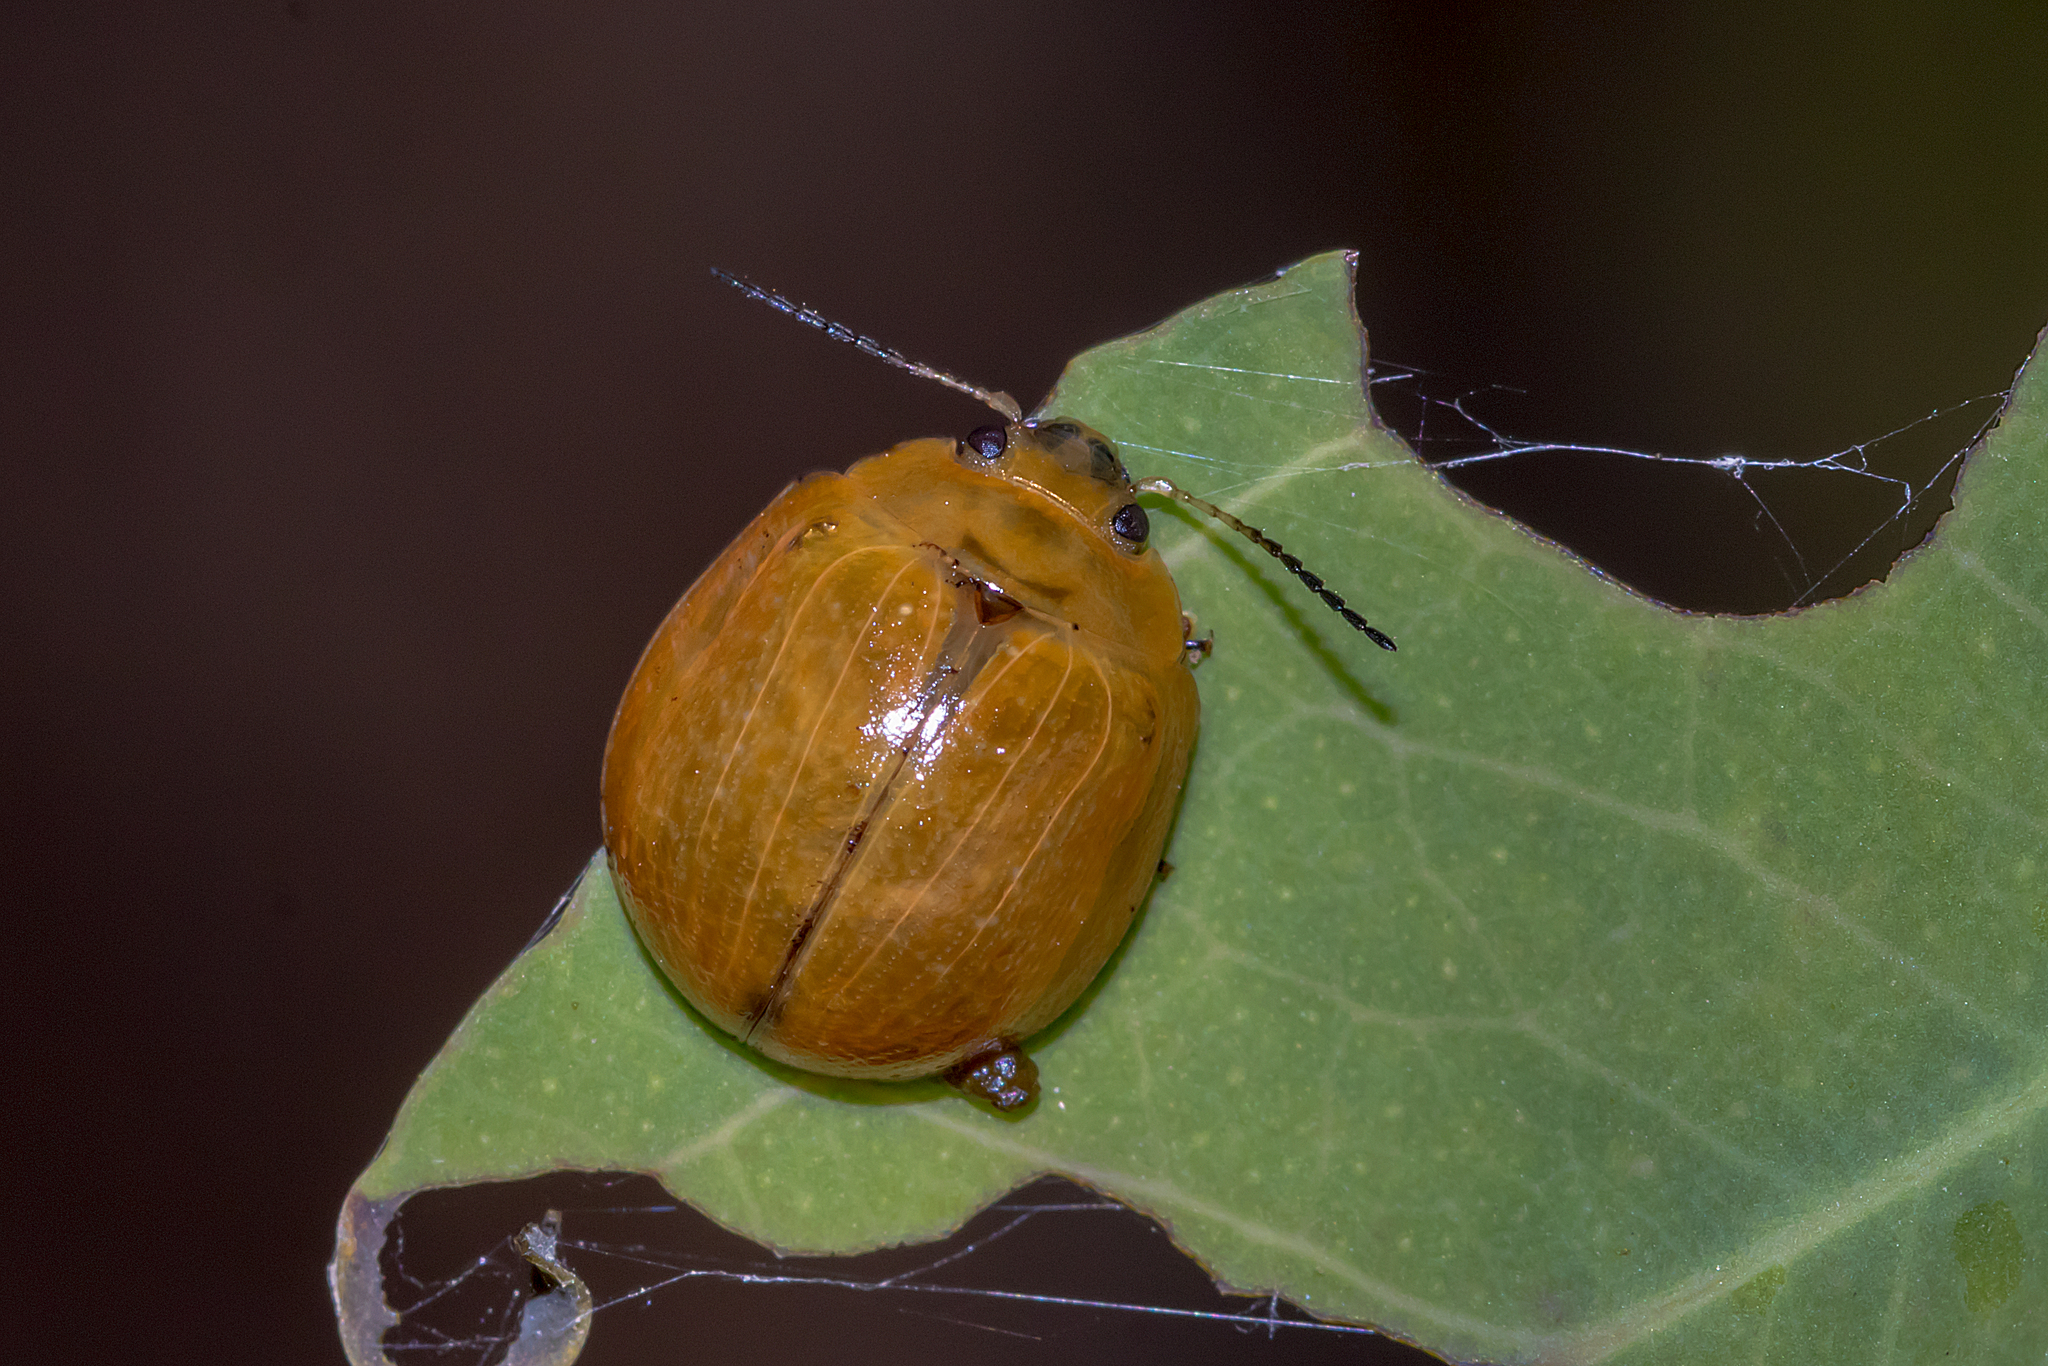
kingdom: Animalia
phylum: Arthropoda
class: Insecta
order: Coleoptera
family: Chrysomelidae
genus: Paropsisterna
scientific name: Paropsisterna cloelia
